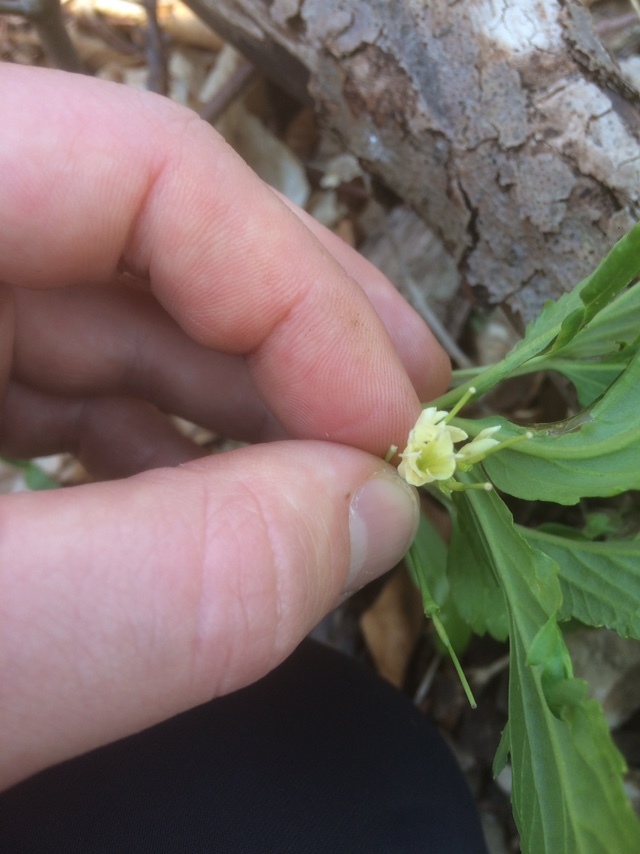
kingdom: Plantae
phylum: Tracheophyta
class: Magnoliopsida
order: Brassicales
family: Brassicaceae
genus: Cardamine
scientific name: Cardamine enneaphyllos
